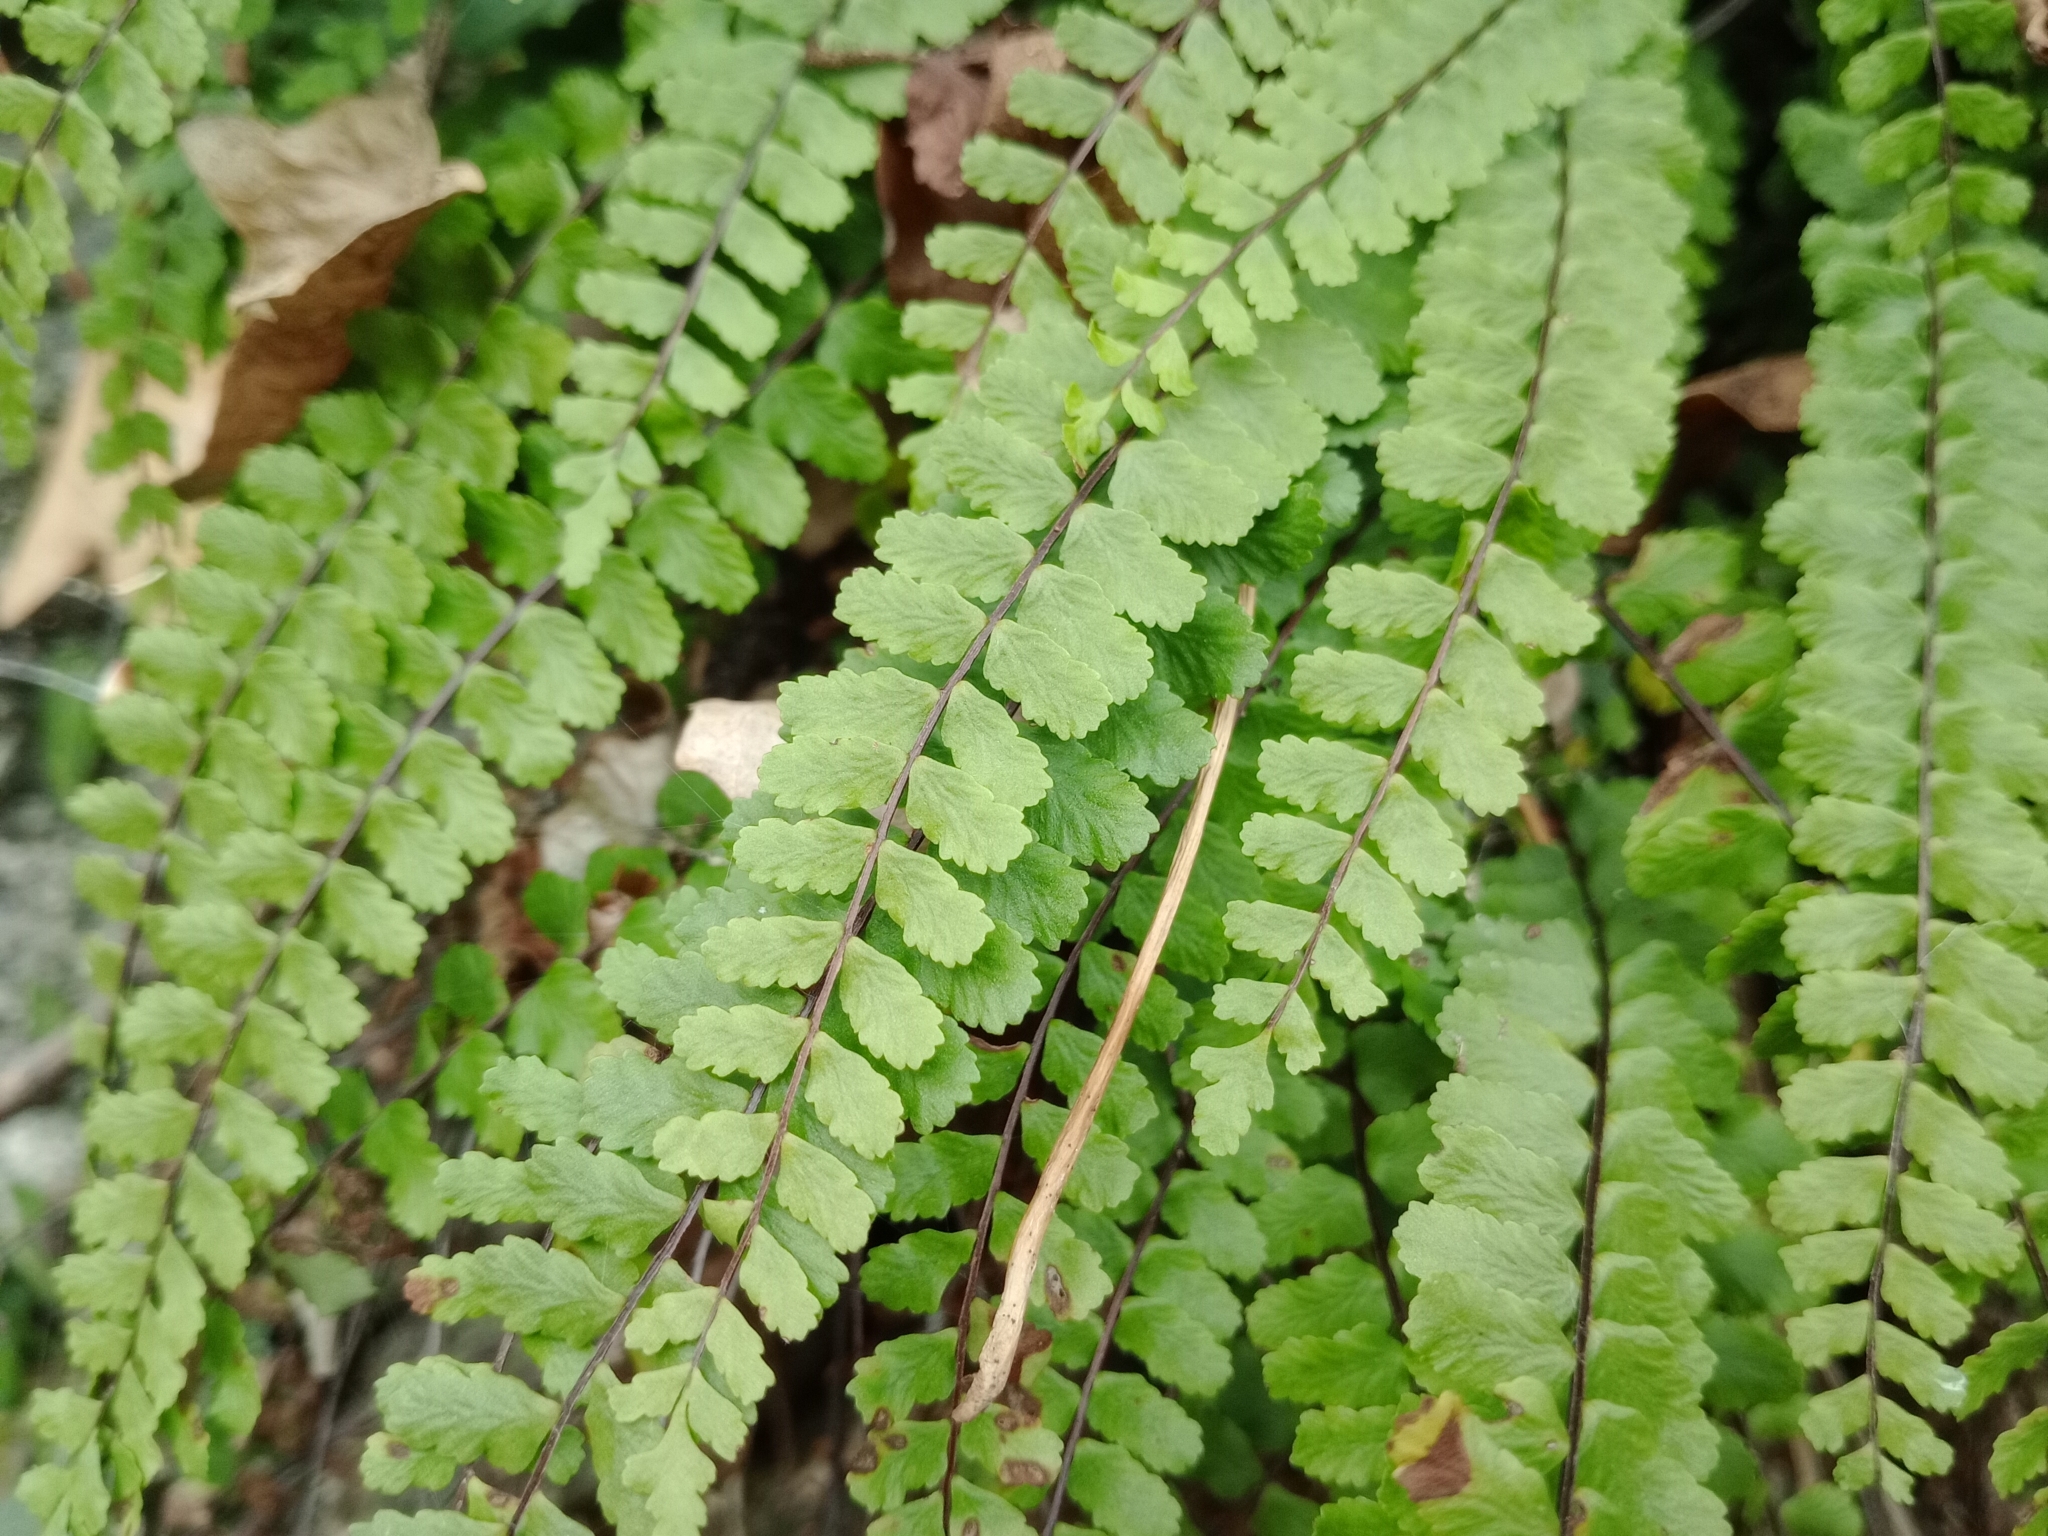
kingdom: Plantae
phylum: Tracheophyta
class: Polypodiopsida
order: Polypodiales
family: Aspleniaceae
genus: Asplenium
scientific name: Asplenium trichomanes
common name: Maidenhair spleenwort
